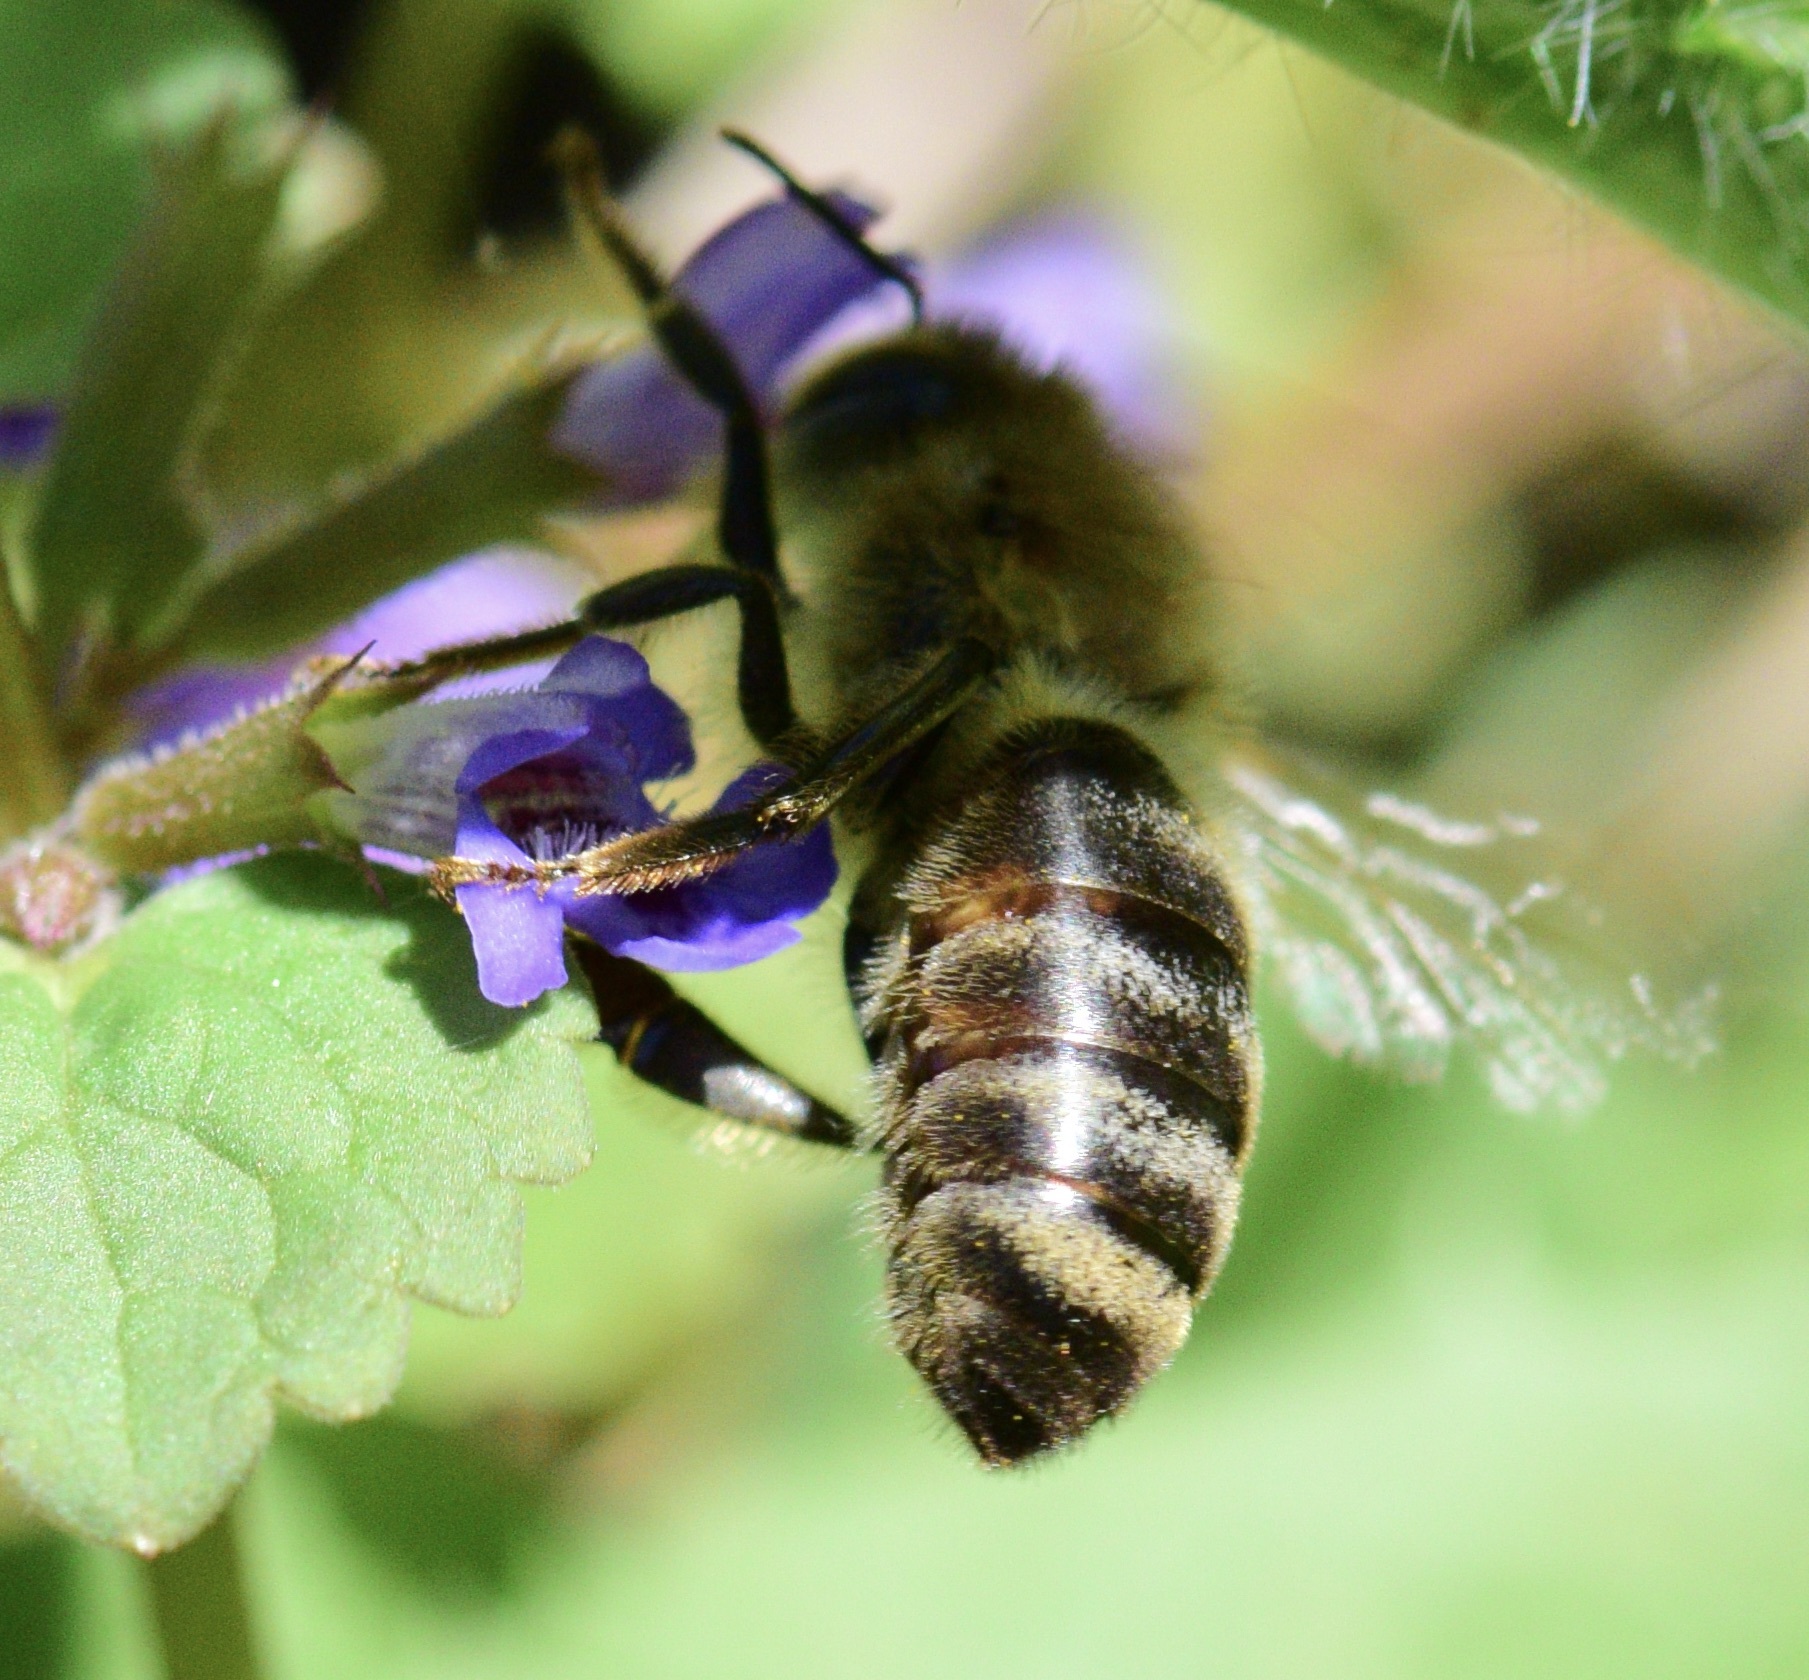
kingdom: Animalia
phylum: Arthropoda
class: Insecta
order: Hymenoptera
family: Apidae
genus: Apis
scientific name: Apis mellifera
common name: Honey bee
